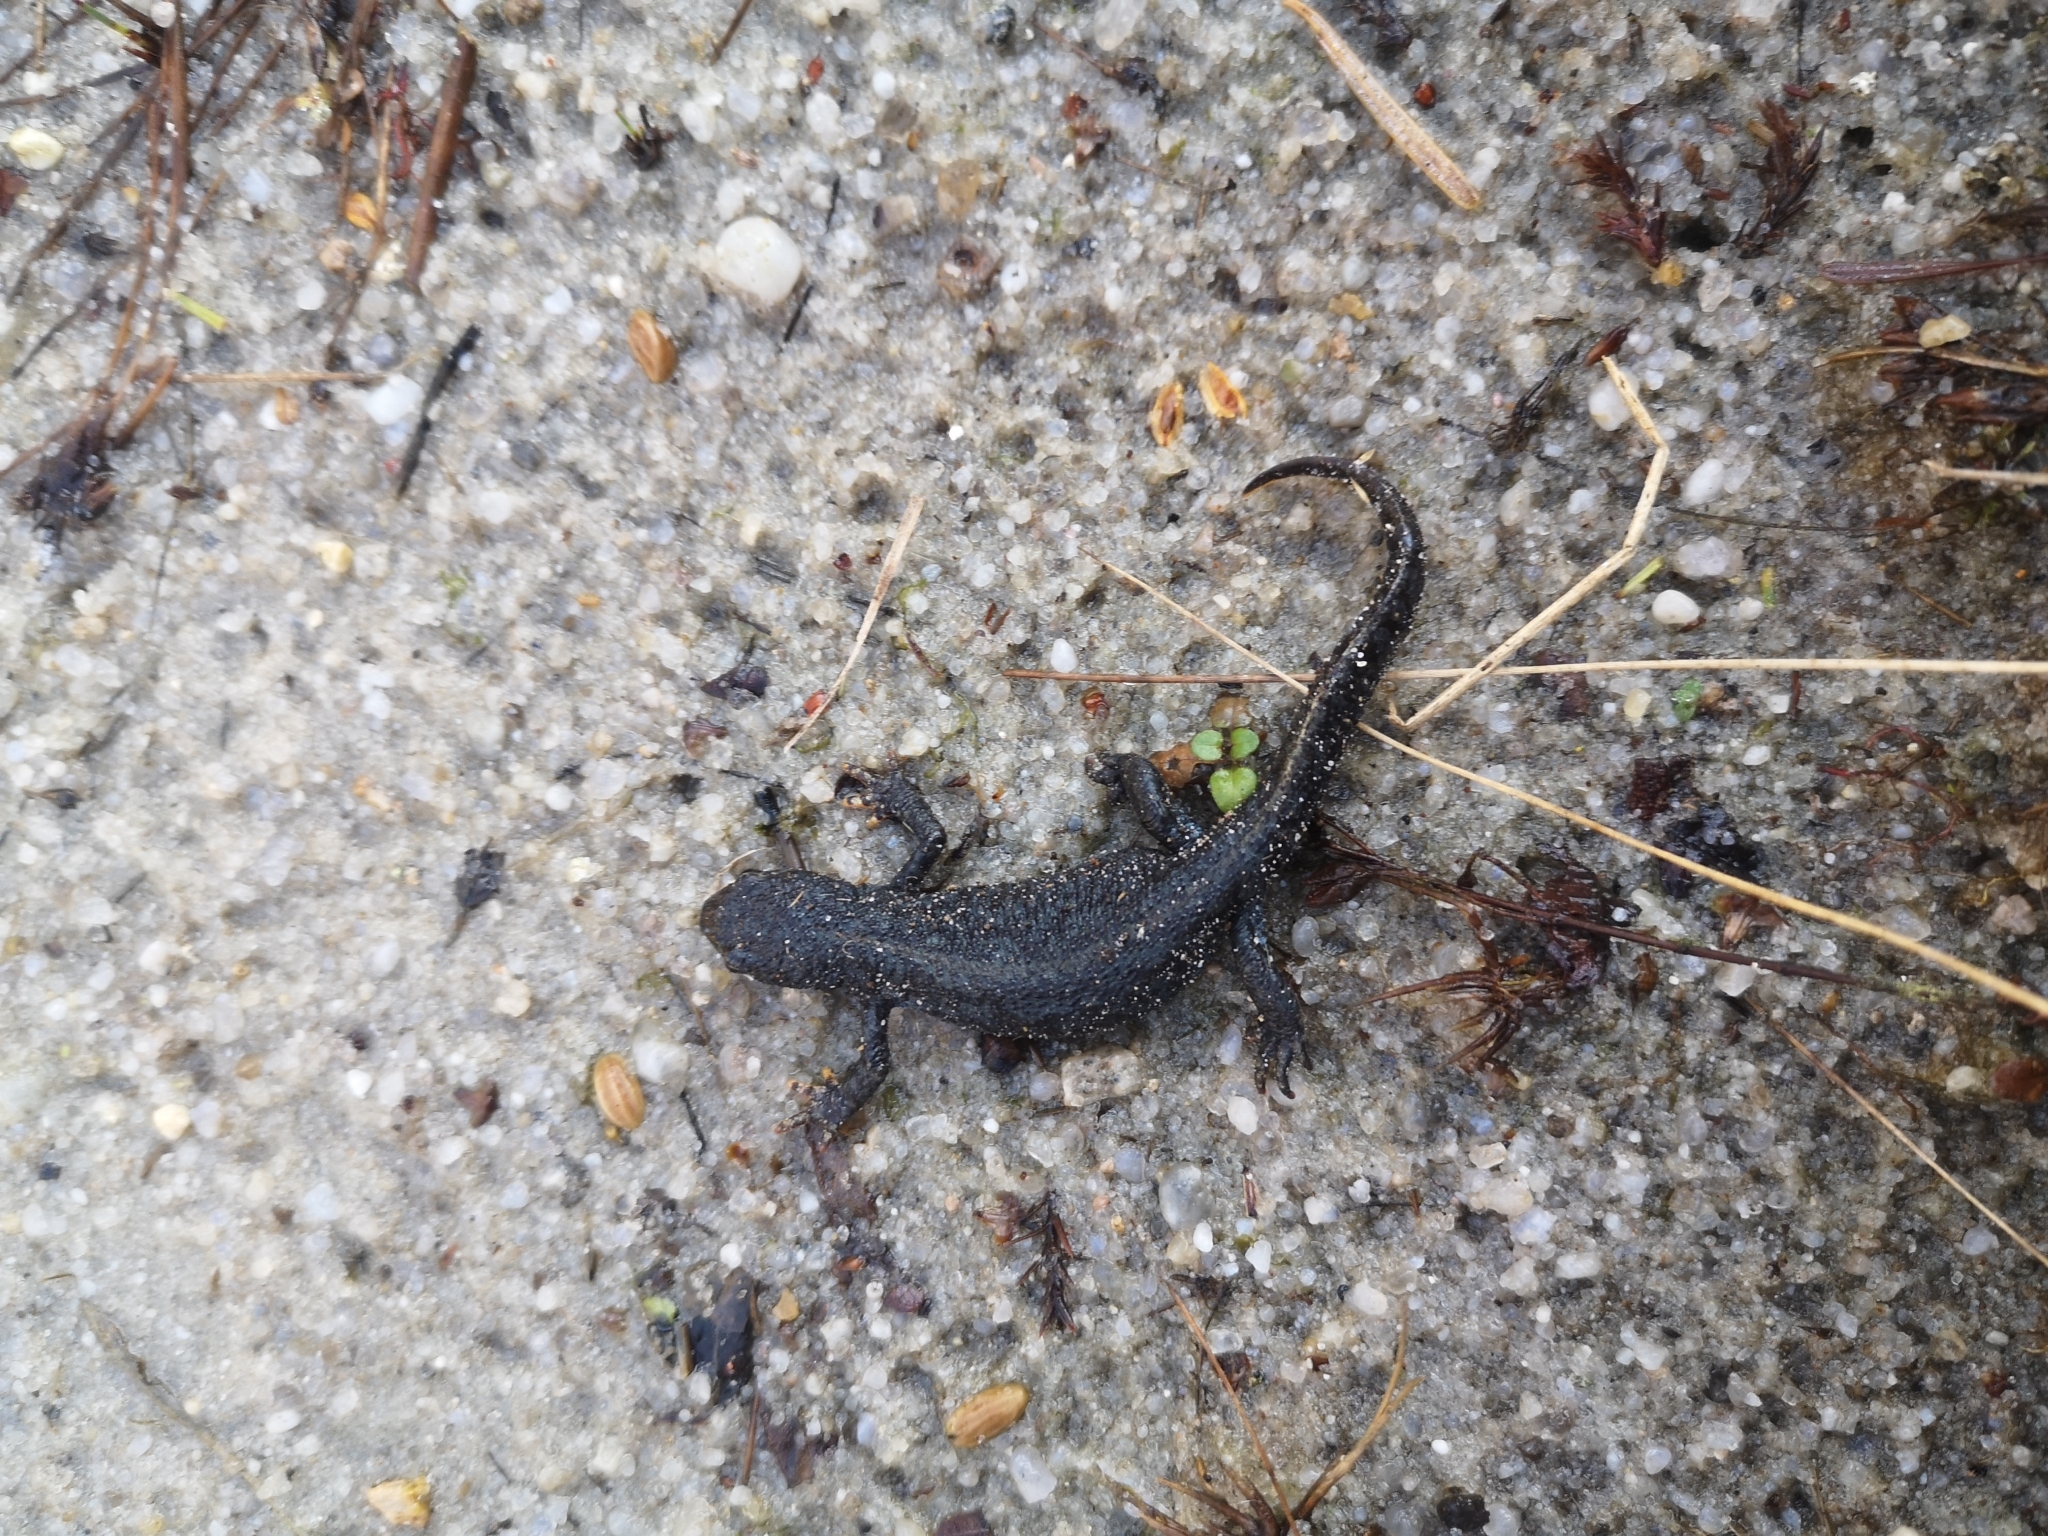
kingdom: Animalia
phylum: Chordata
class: Amphibia
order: Caudata
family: Salamandridae
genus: Ichthyosaura
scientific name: Ichthyosaura alpestris
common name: Alpine newt
